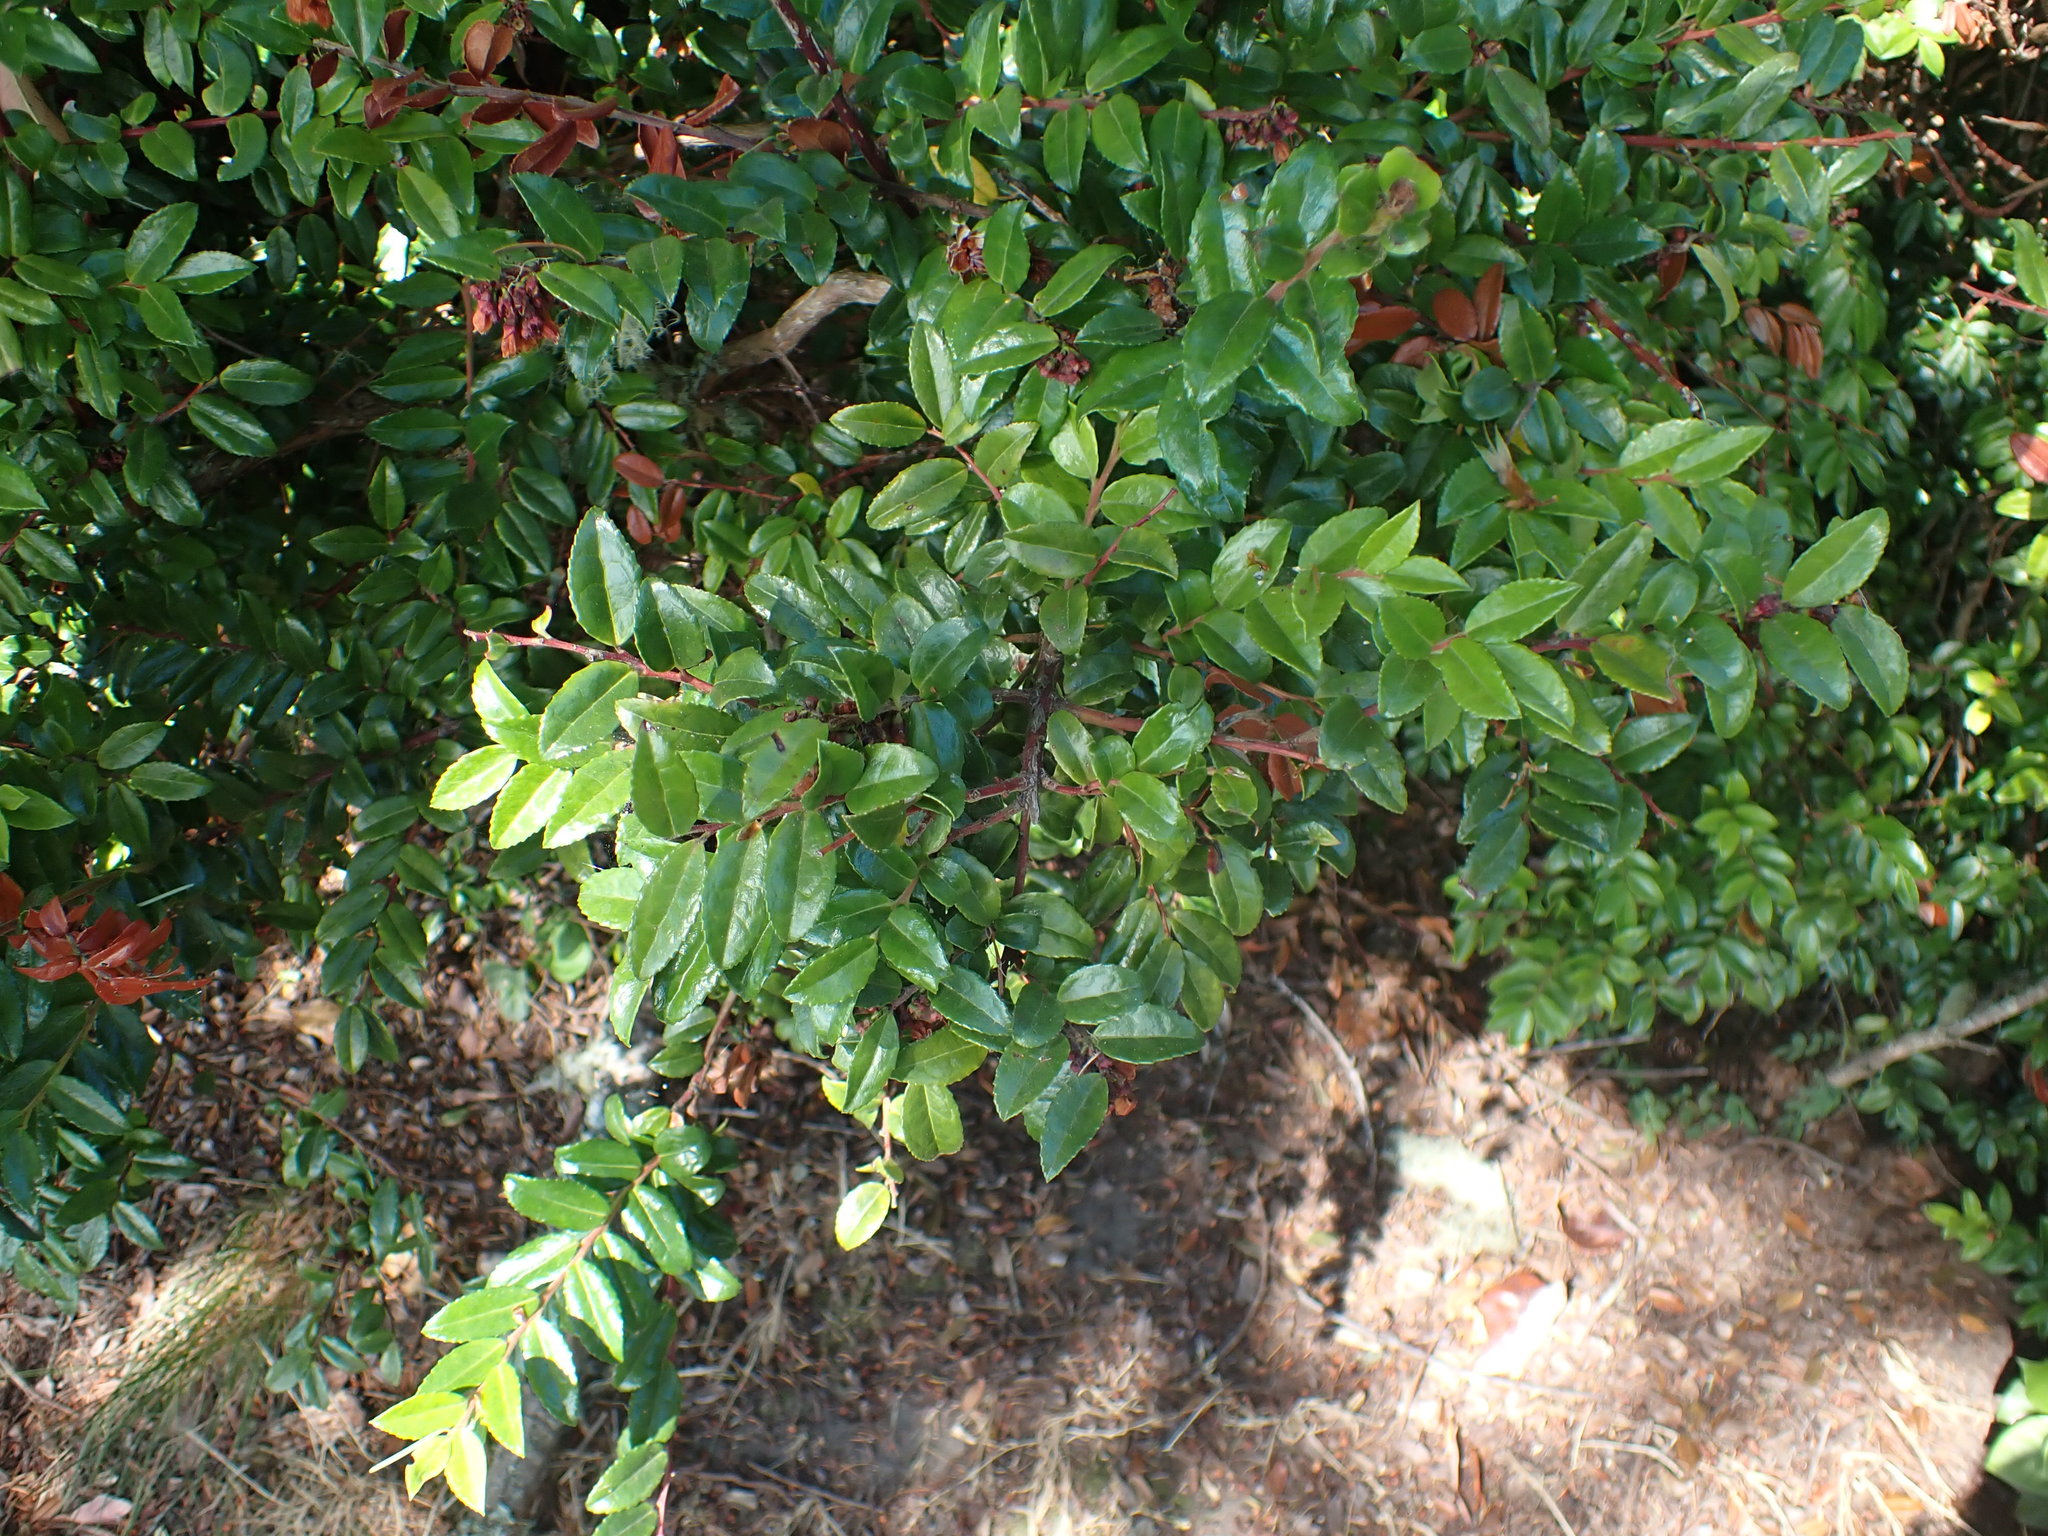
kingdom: Plantae
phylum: Tracheophyta
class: Magnoliopsida
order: Ericales
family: Ericaceae
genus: Vaccinium
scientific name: Vaccinium ovatum
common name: California-huckleberry
